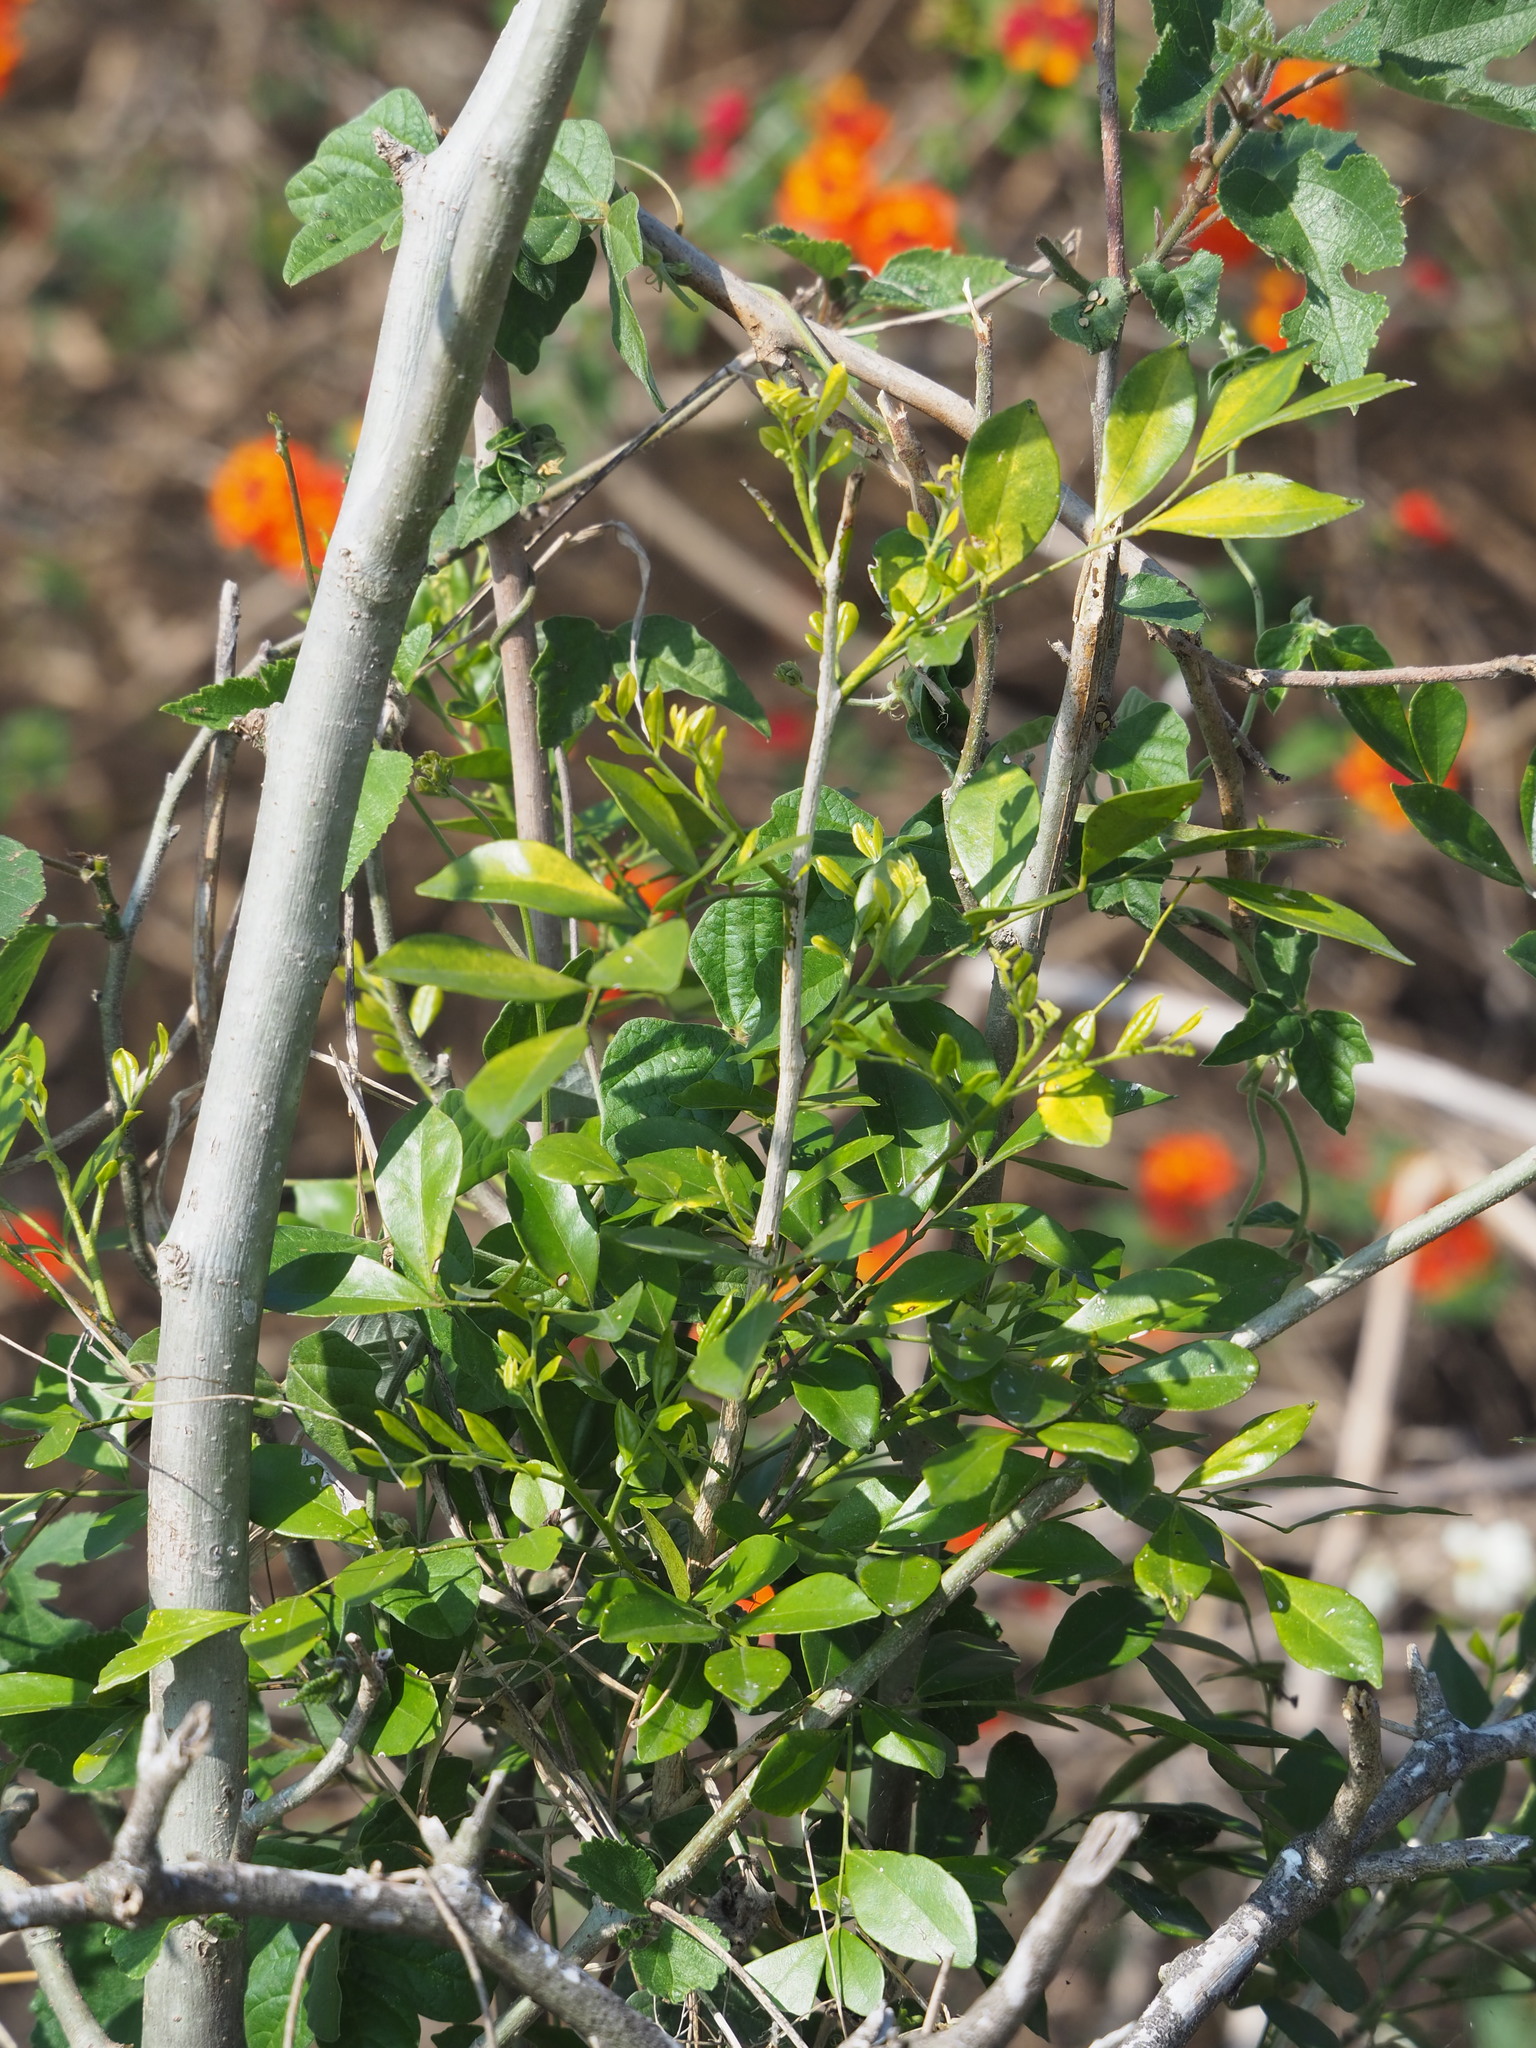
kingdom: Plantae
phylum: Tracheophyta
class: Magnoliopsida
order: Sapindales
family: Rutaceae
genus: Murraya
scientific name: Murraya paniculata
